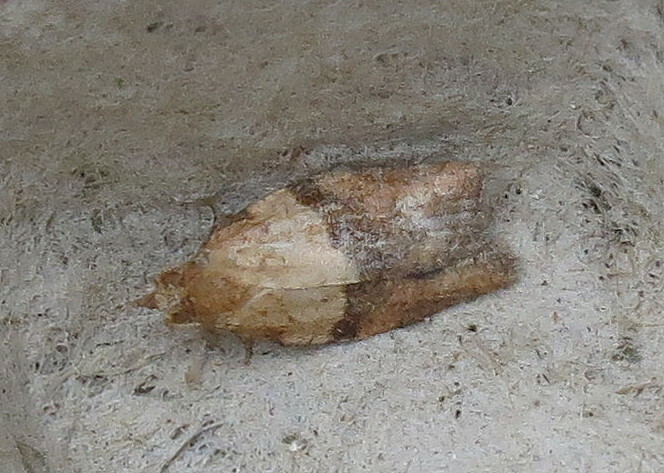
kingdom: Animalia
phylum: Arthropoda
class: Insecta
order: Lepidoptera
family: Tortricidae
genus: Epiphyas
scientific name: Epiphyas postvittana
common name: Light brown apple moth
